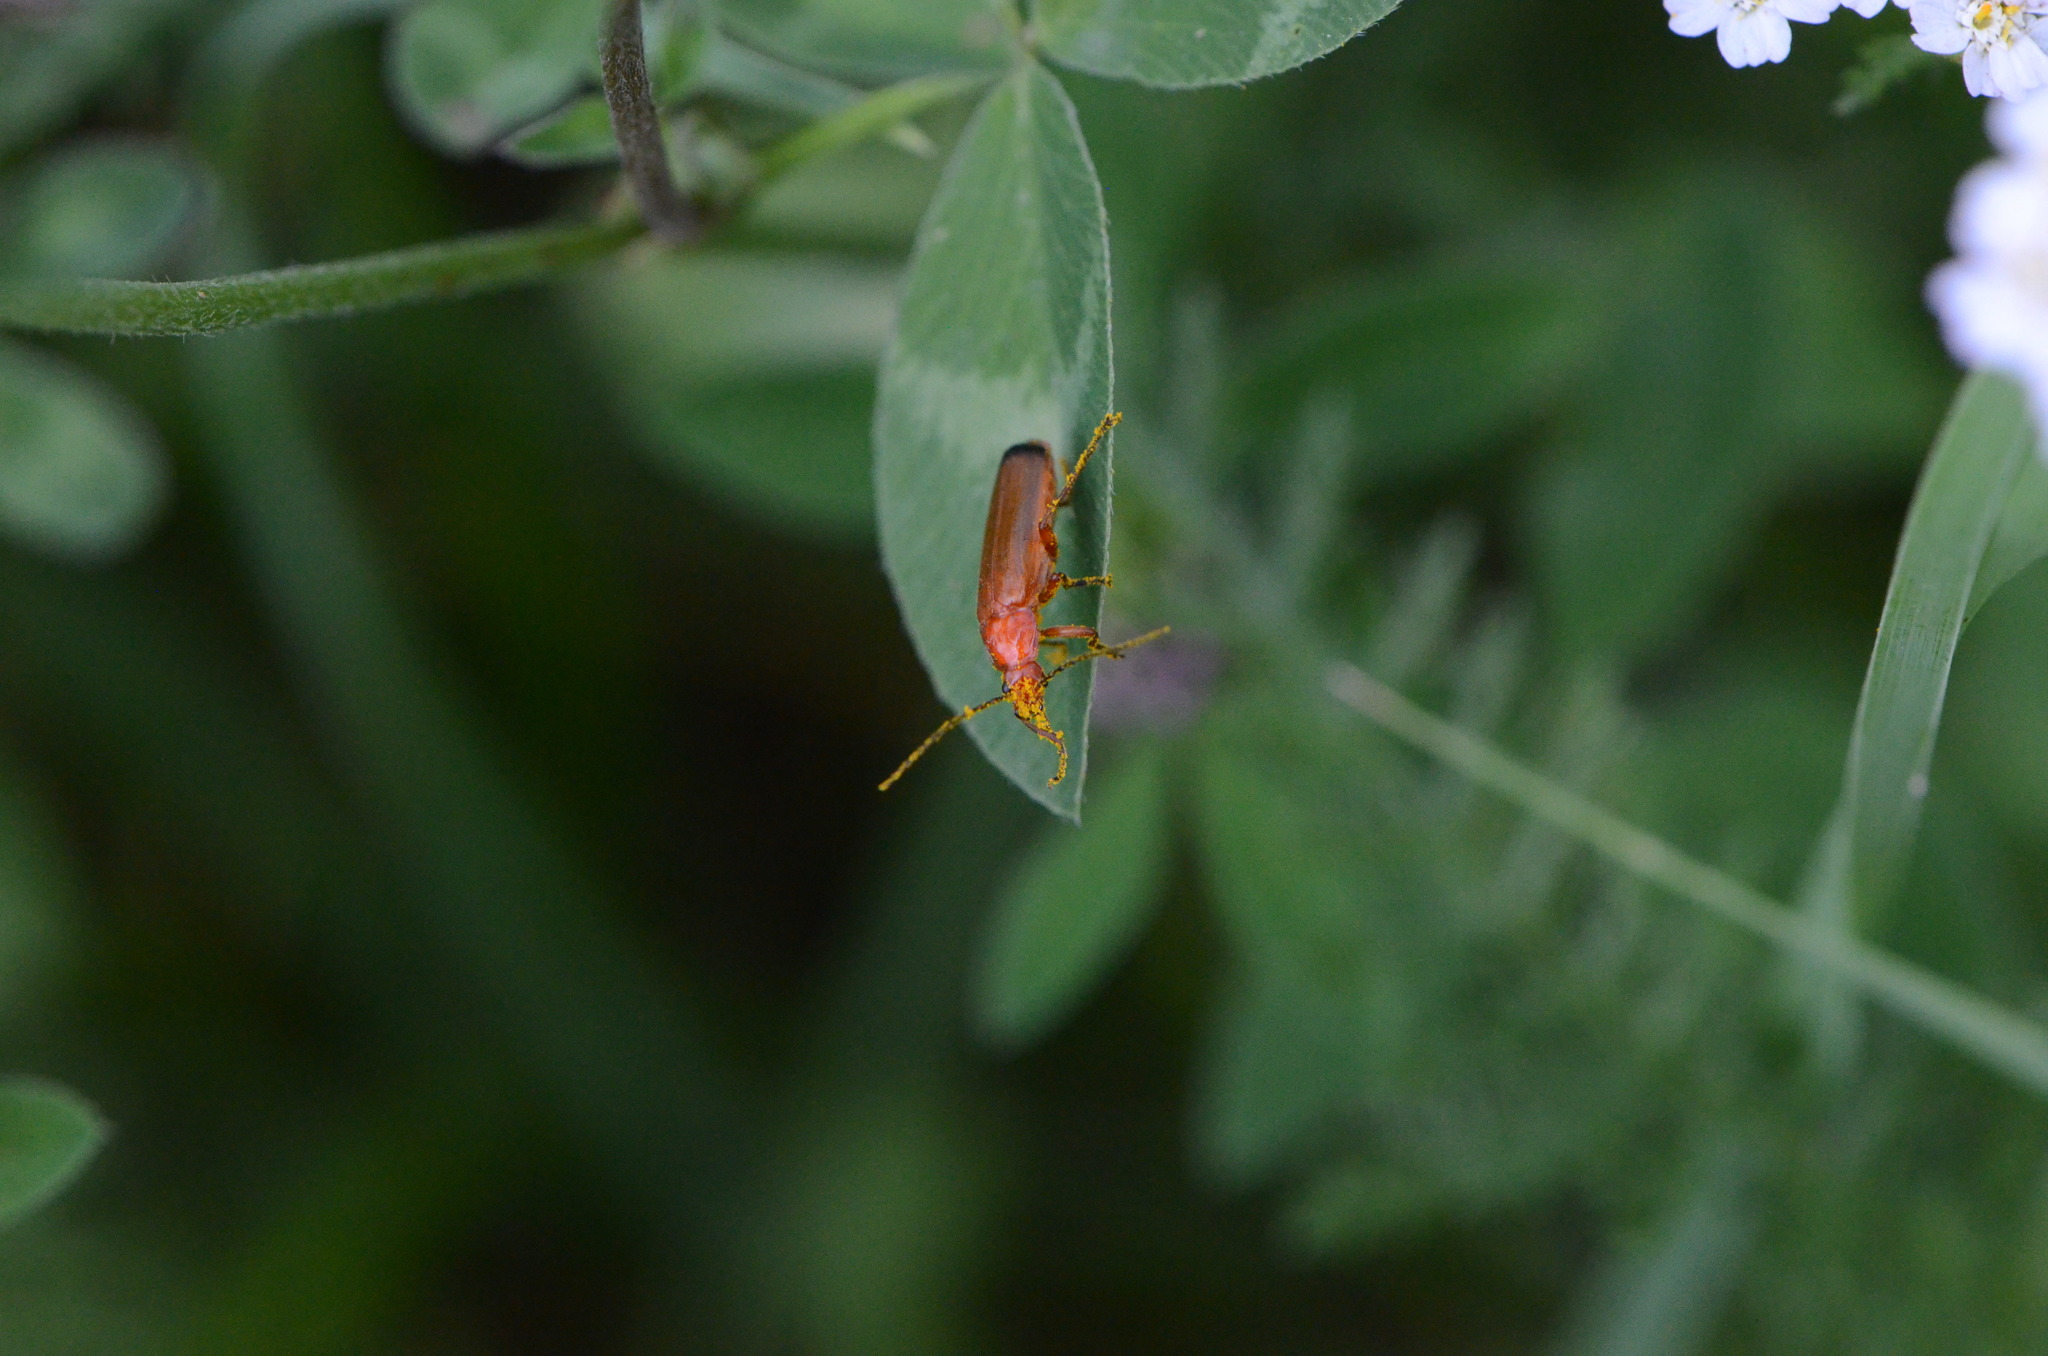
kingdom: Animalia
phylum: Arthropoda
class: Insecta
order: Coleoptera
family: Cantharidae
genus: Rhagonycha
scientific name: Rhagonycha fulva
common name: Common red soldier beetle
